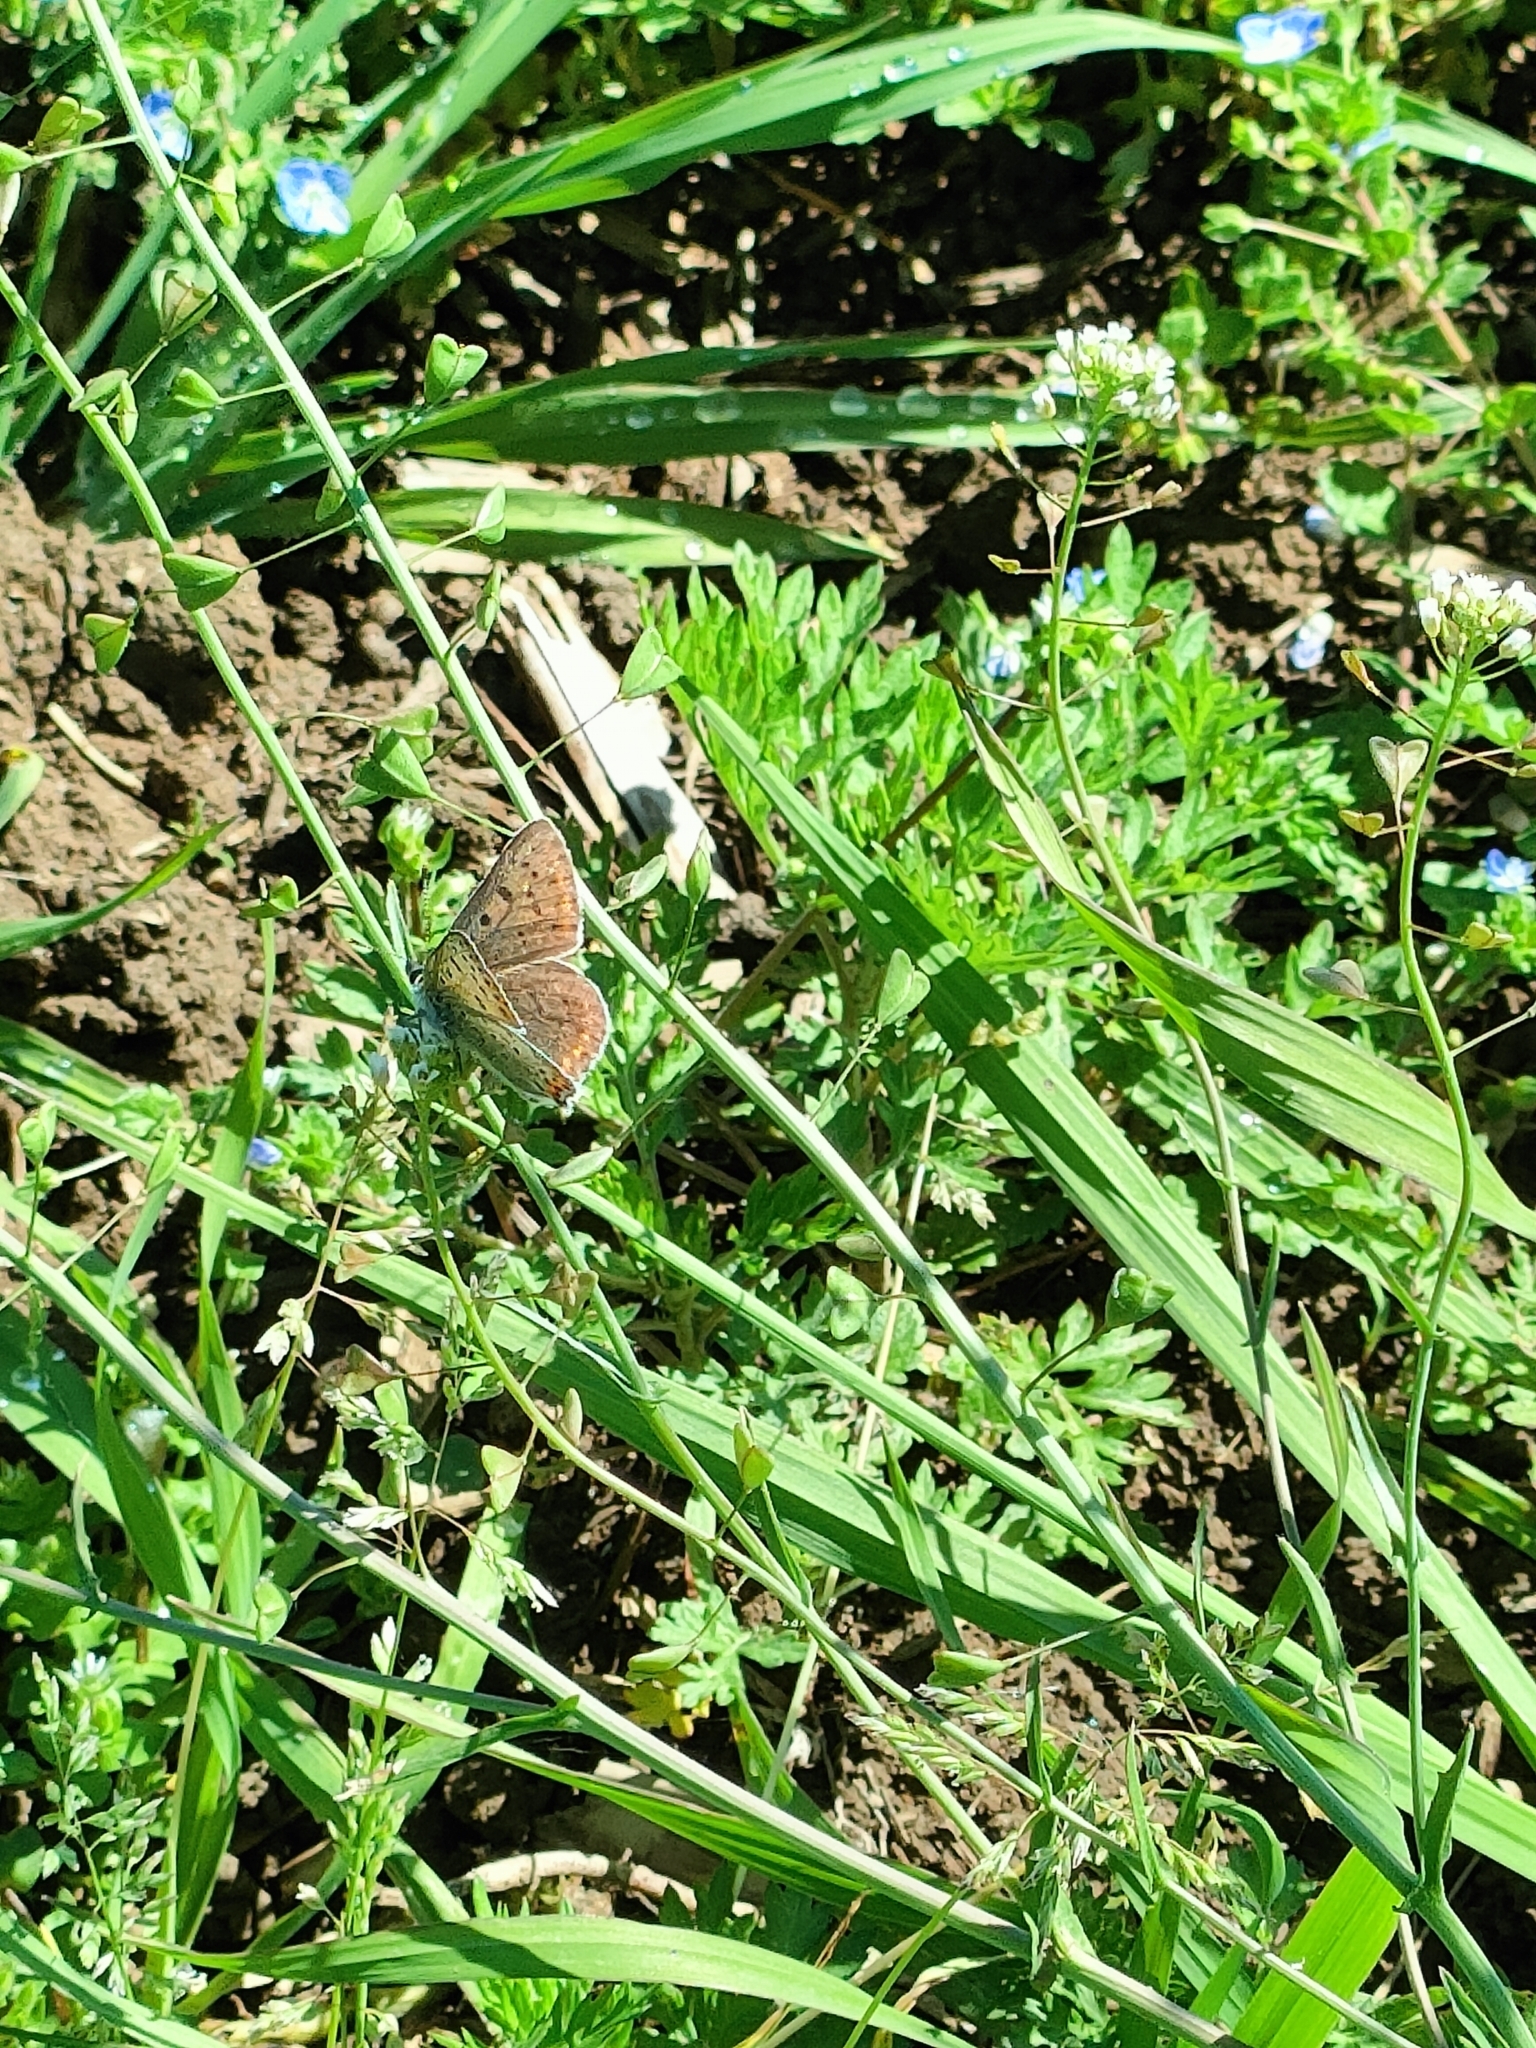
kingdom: Animalia
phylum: Arthropoda
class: Insecta
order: Lepidoptera
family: Lycaenidae
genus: Loweia
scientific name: Loweia tityrus
